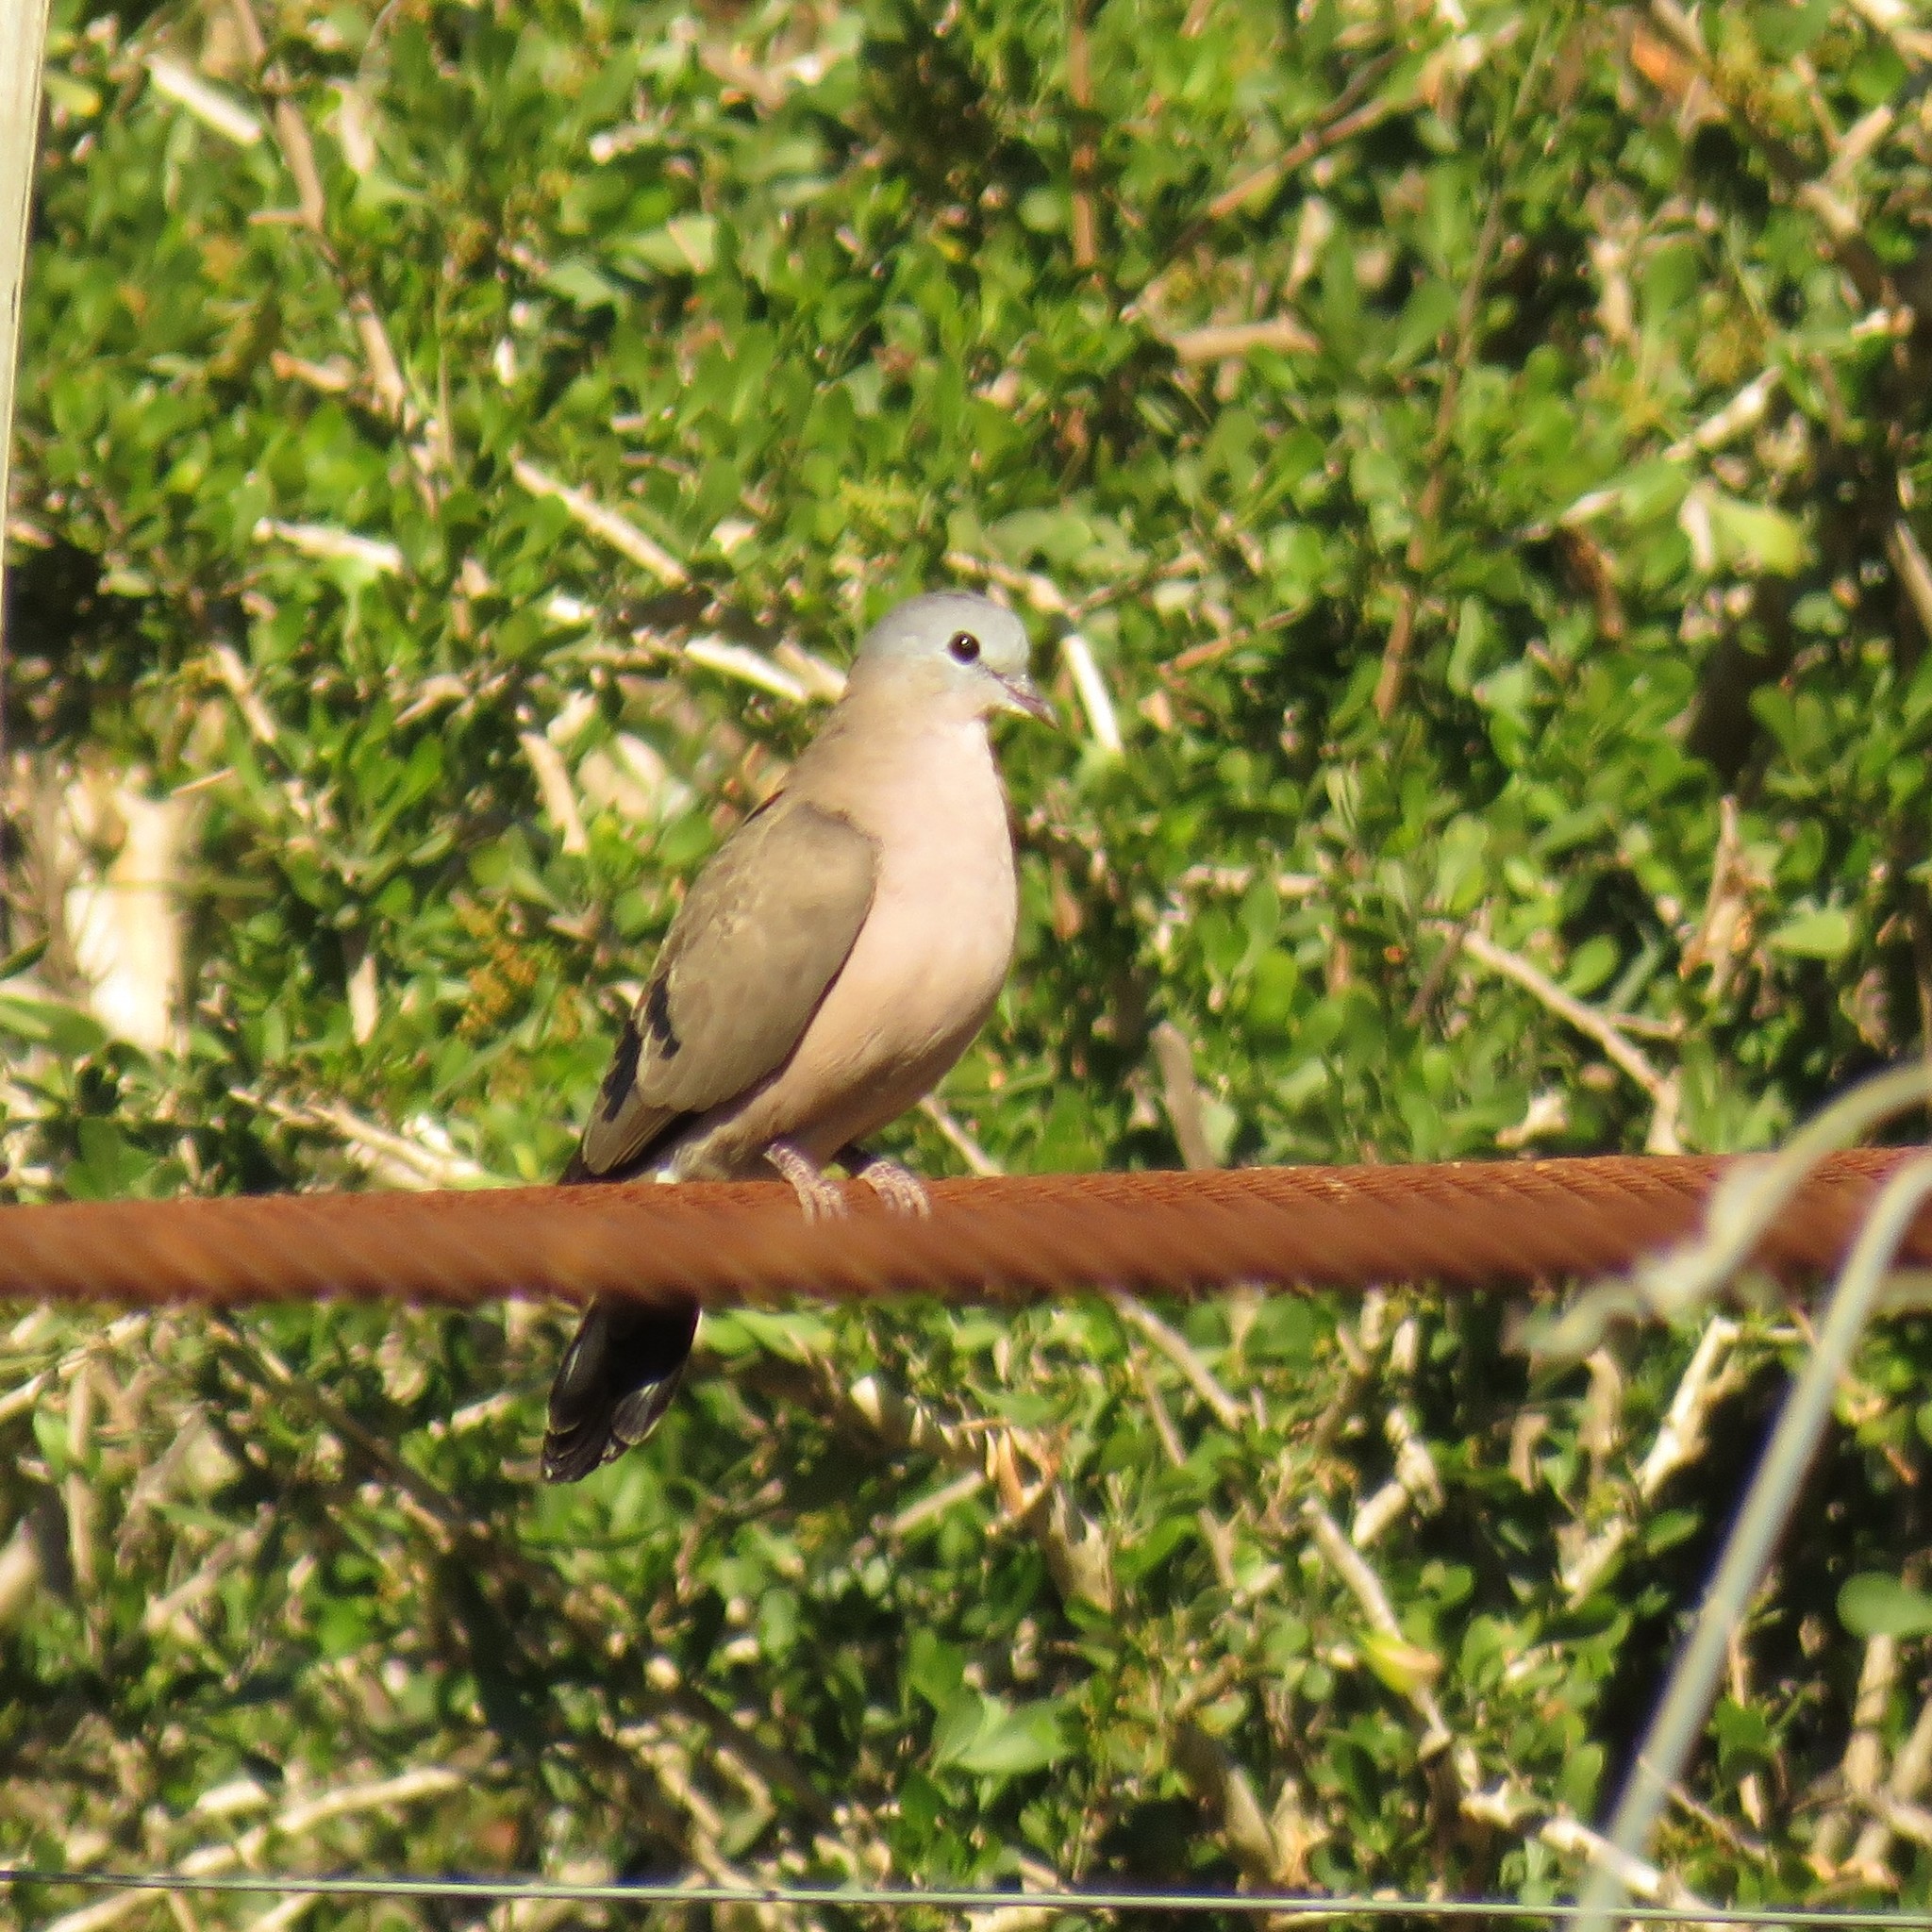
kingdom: Animalia
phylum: Chordata
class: Aves
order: Columbiformes
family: Columbidae
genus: Turtur
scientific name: Turtur chalcospilos
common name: Emerald-spotted wood dove
